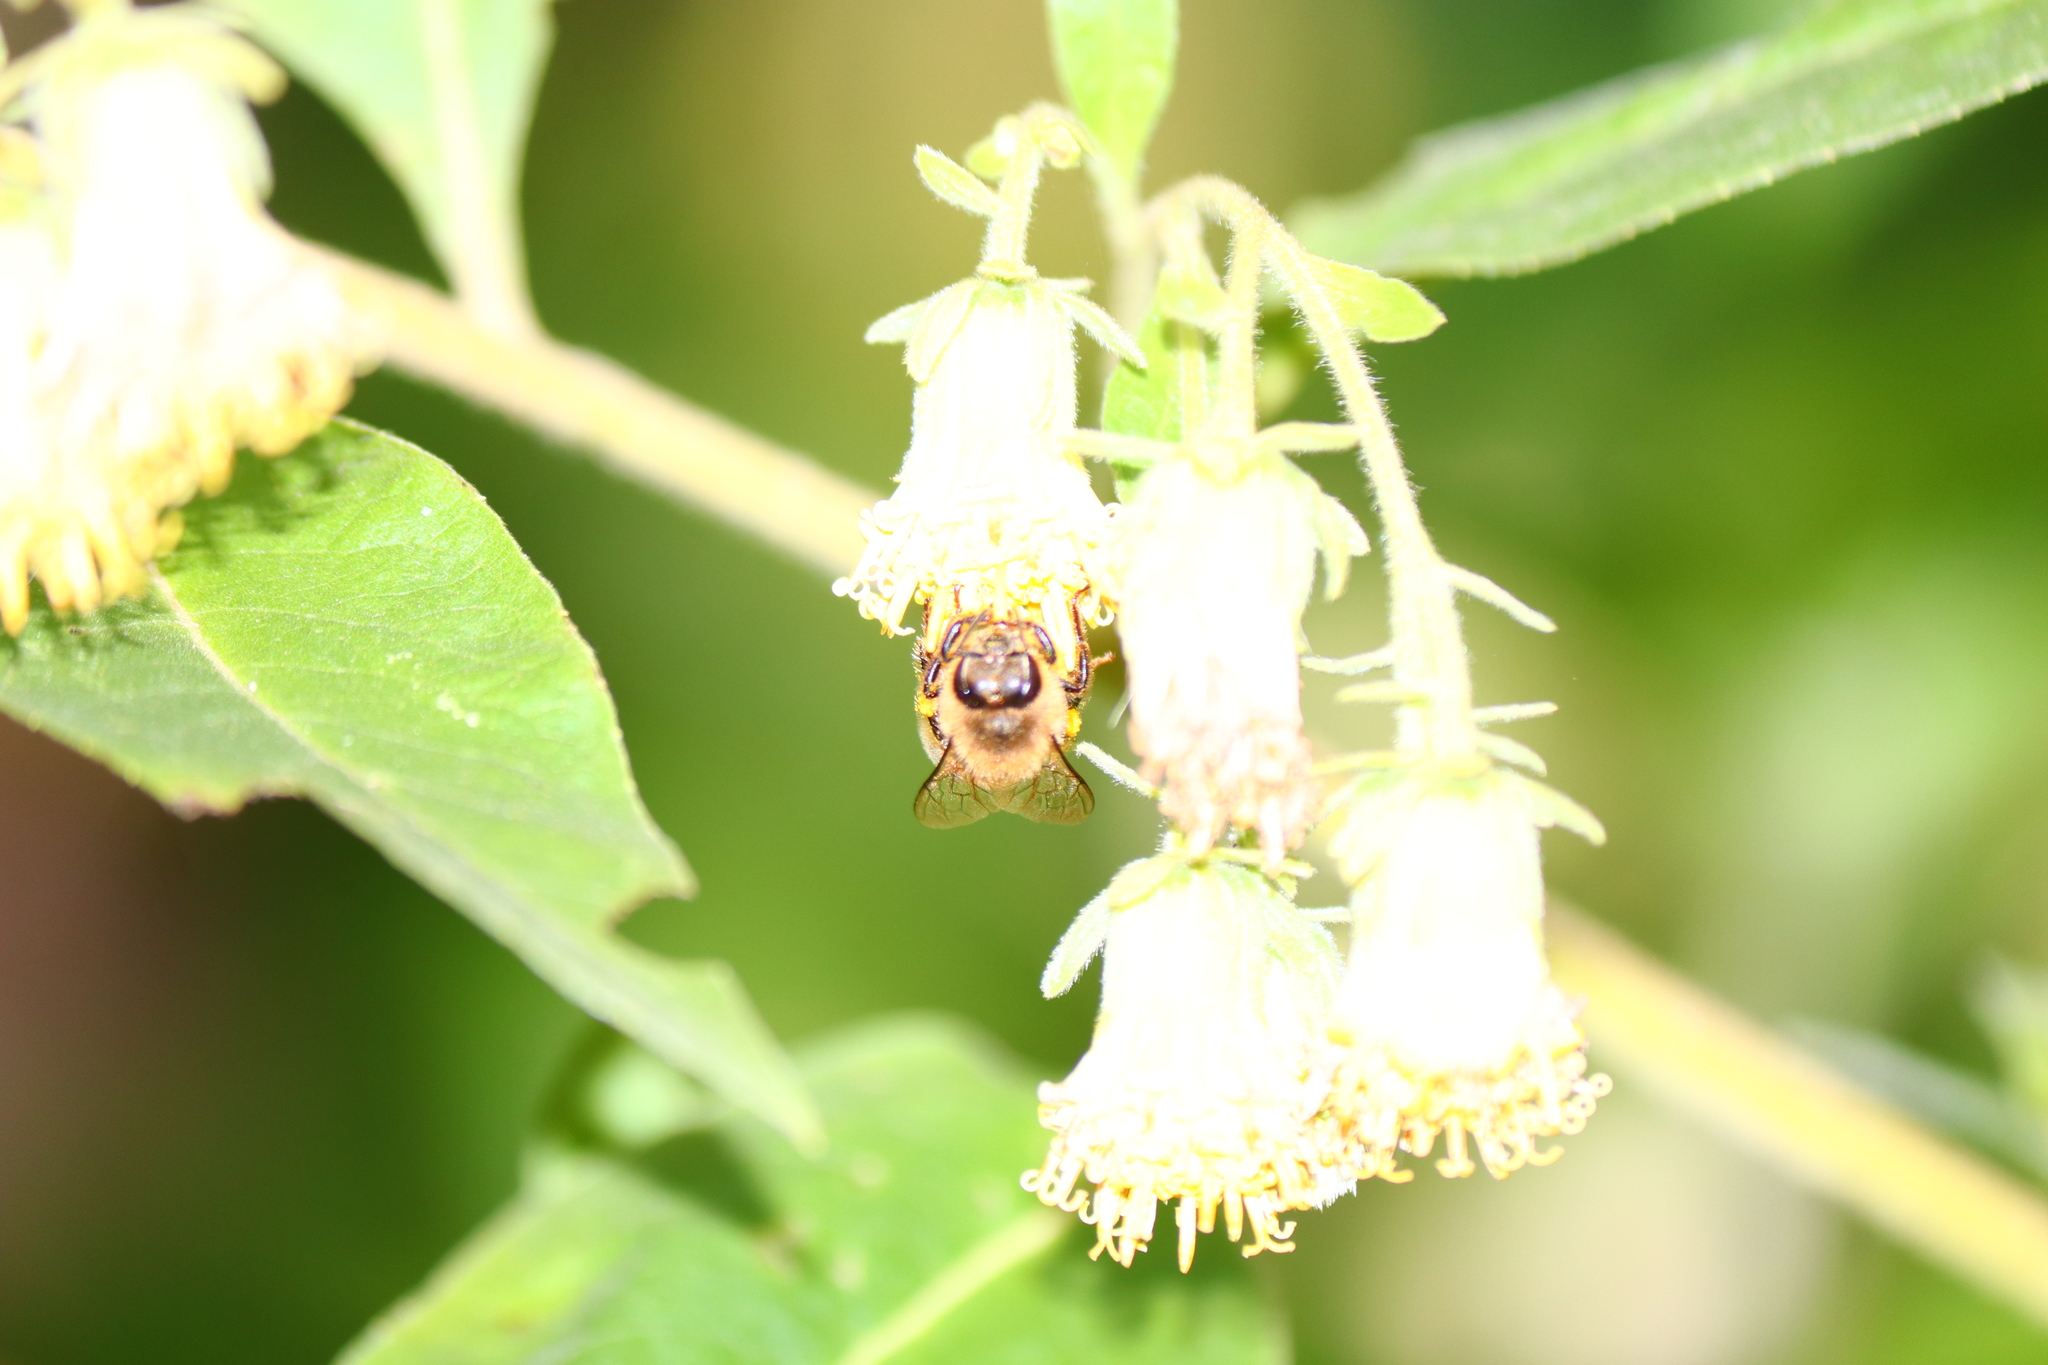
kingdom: Animalia
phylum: Arthropoda
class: Insecta
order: Hymenoptera
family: Apidae
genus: Apis
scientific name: Apis mellifera
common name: Honey bee
